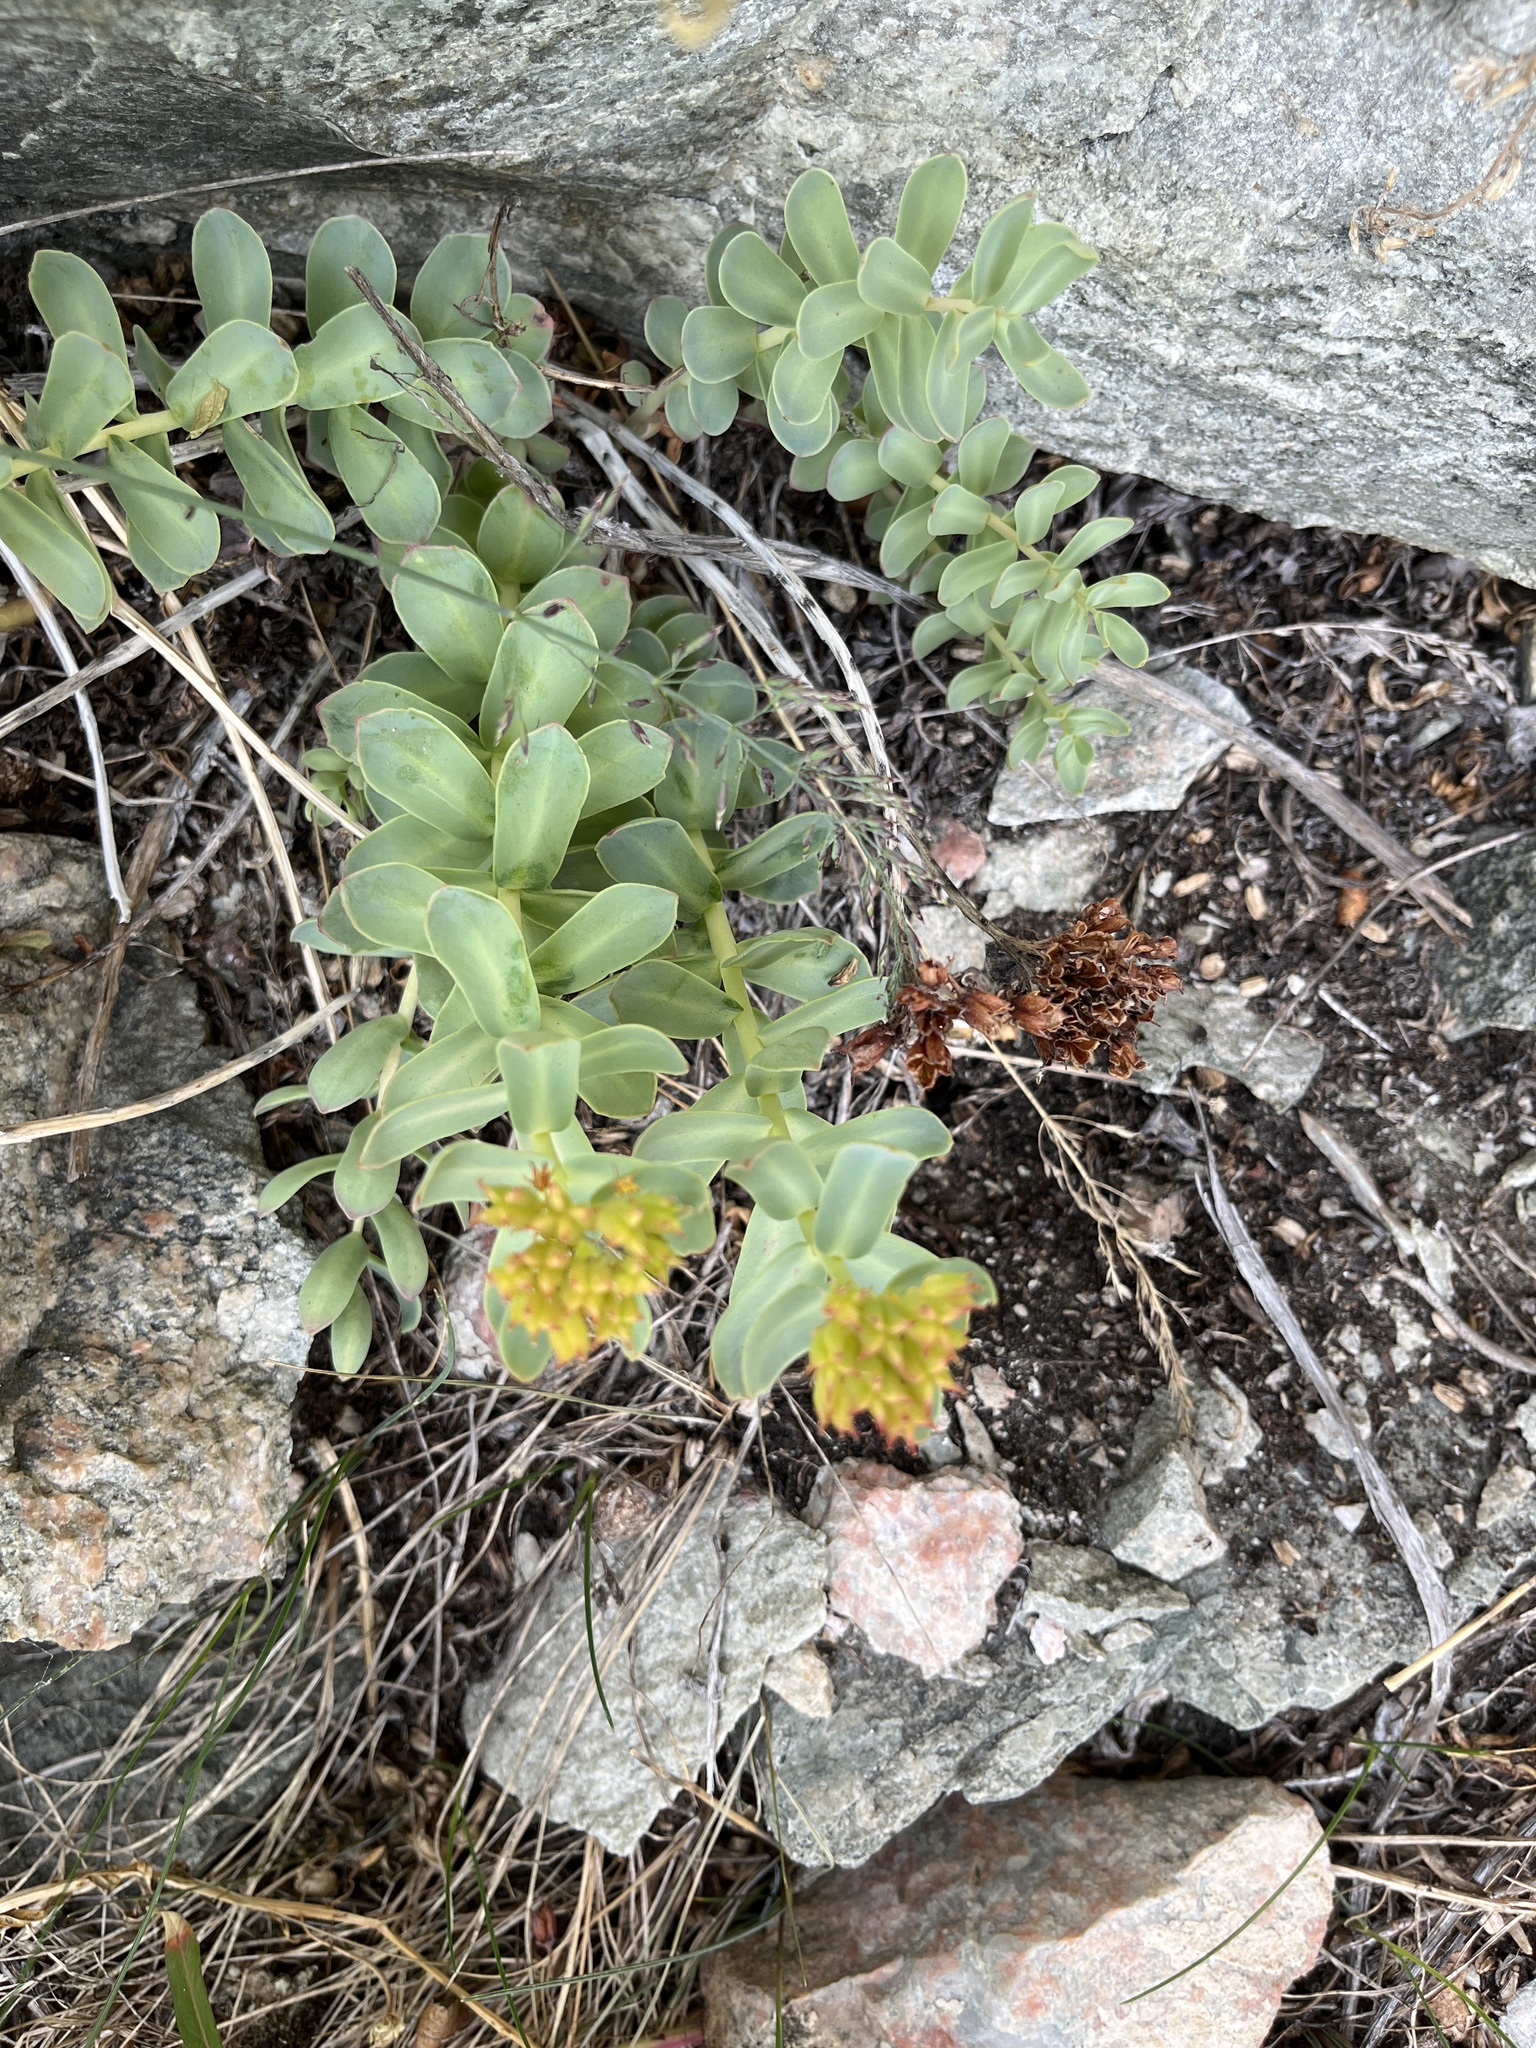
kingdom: Plantae
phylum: Tracheophyta
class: Magnoliopsida
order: Saxifragales
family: Crassulaceae
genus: Rhodiola
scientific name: Rhodiola rosea
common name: Roseroot
